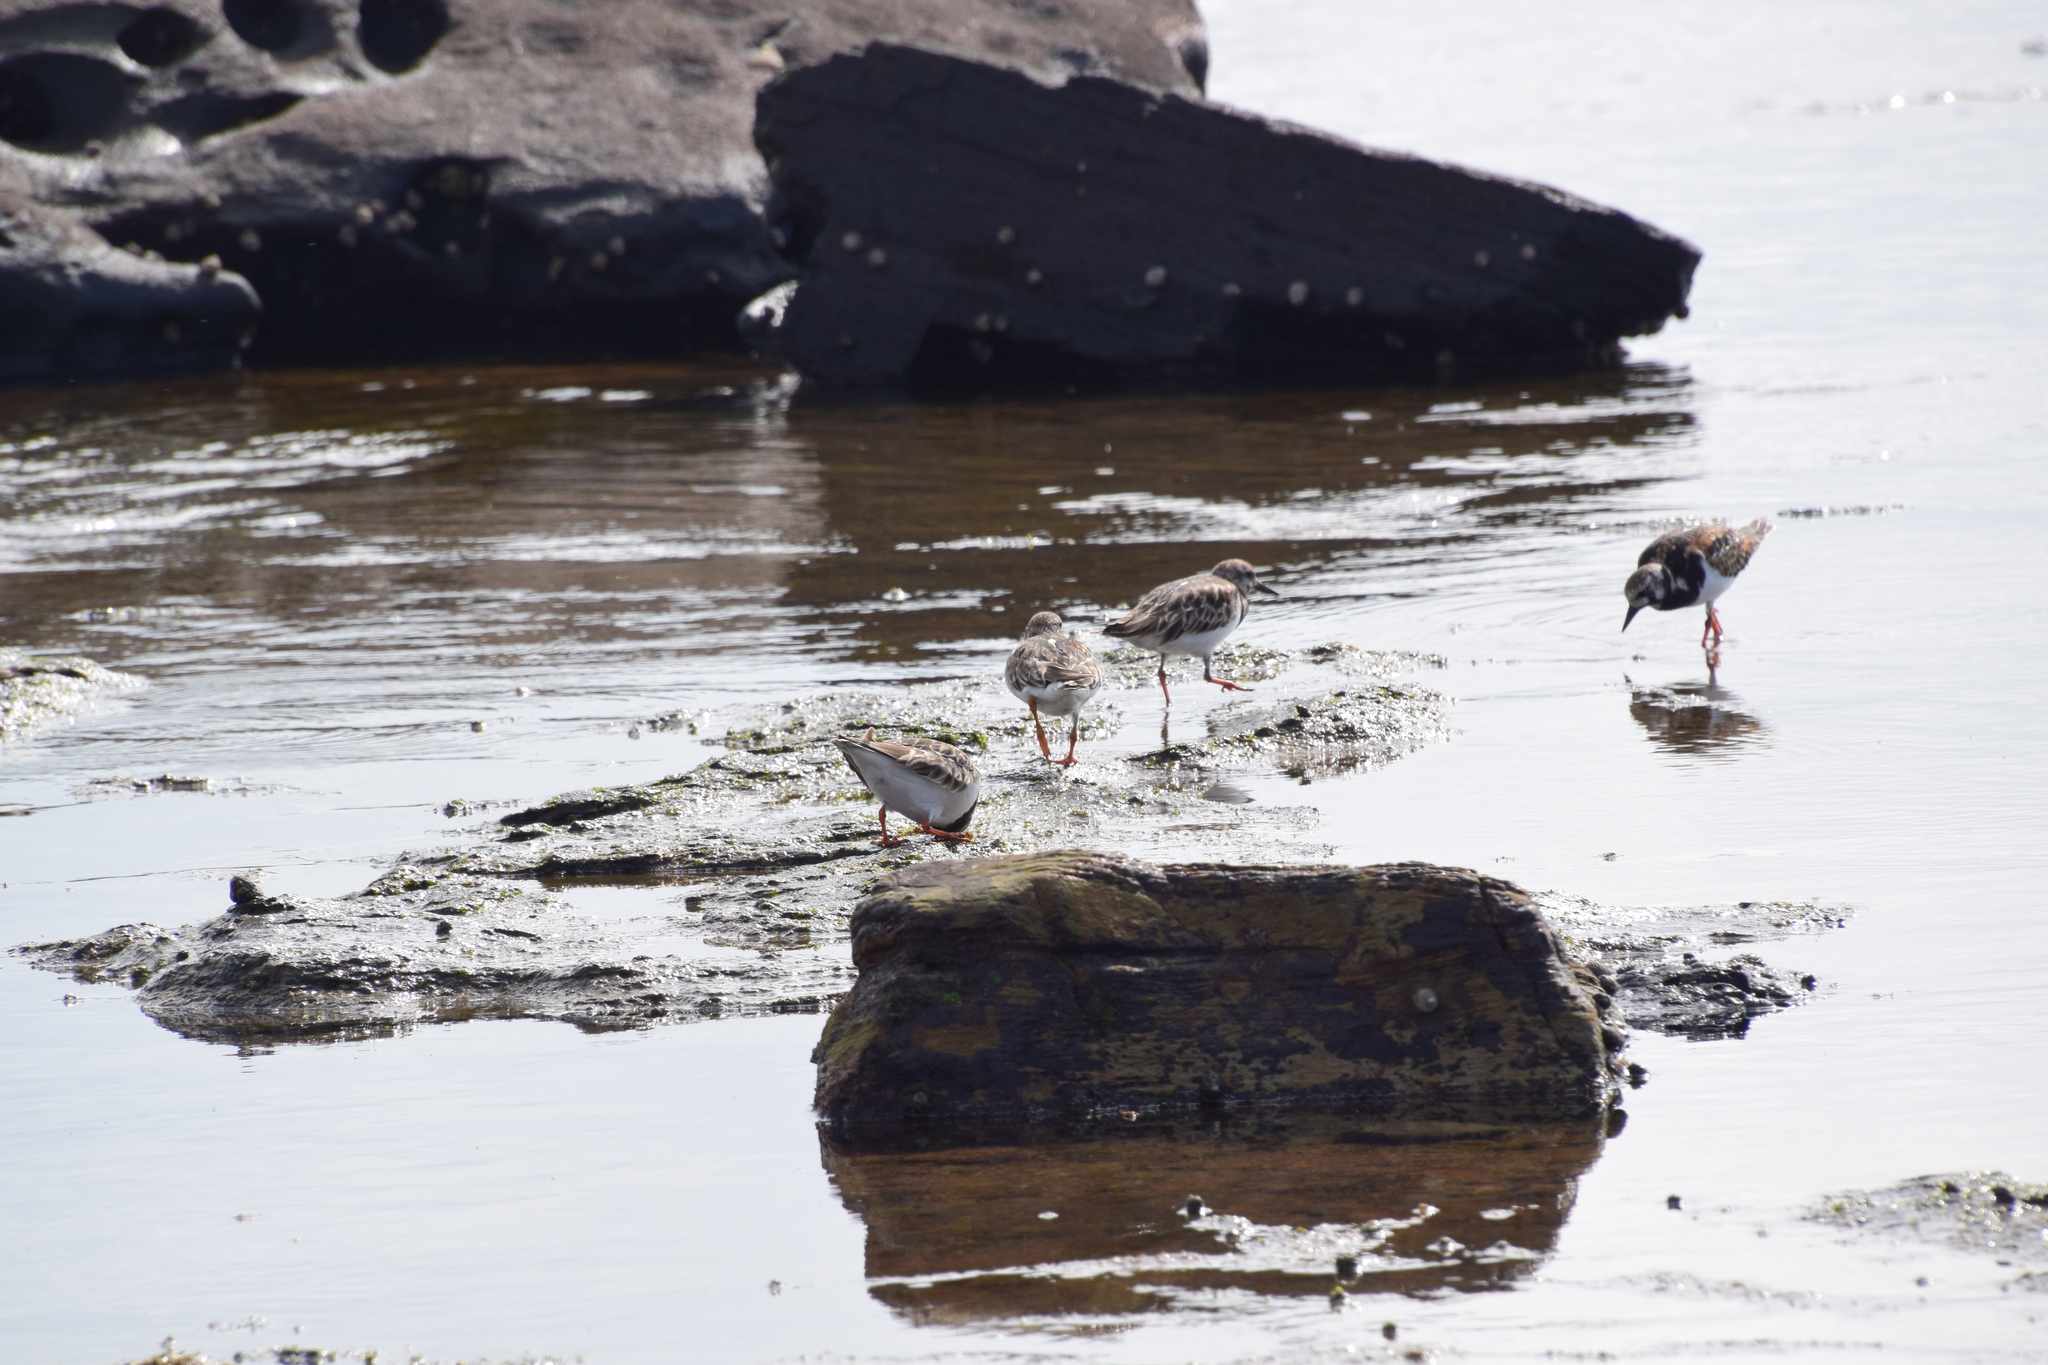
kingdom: Animalia
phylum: Chordata
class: Aves
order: Charadriiformes
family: Scolopacidae
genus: Arenaria
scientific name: Arenaria interpres
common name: Ruddy turnstone
